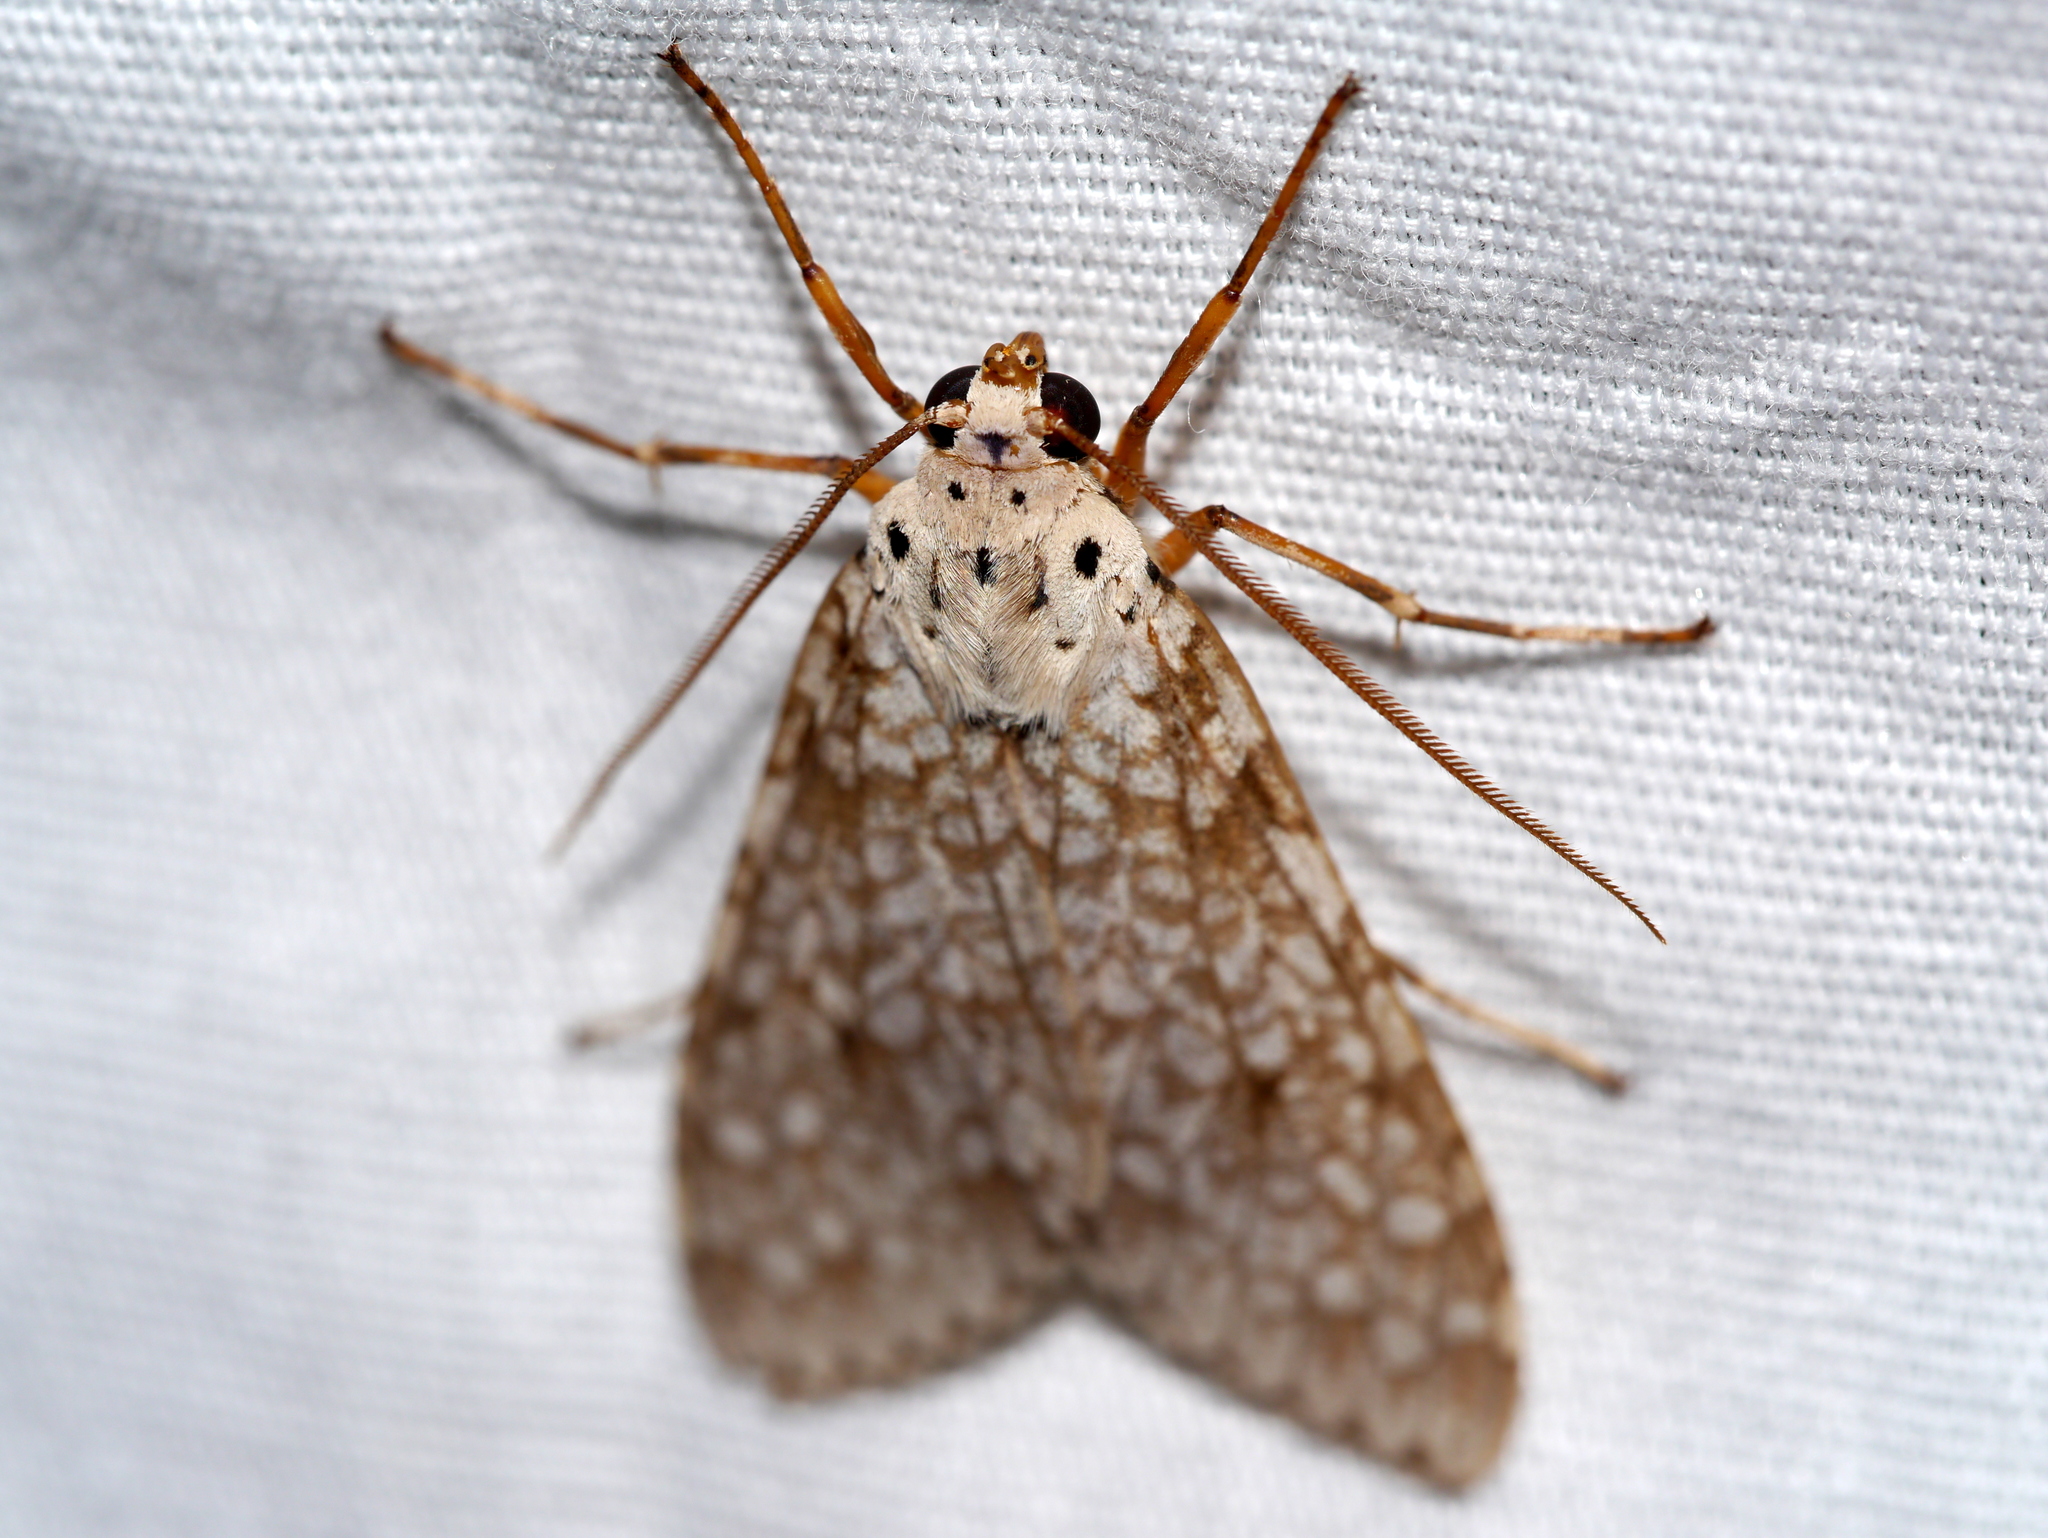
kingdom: Animalia
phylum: Arthropoda
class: Insecta
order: Lepidoptera
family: Erebidae
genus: Carales
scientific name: Carales arizonensis
